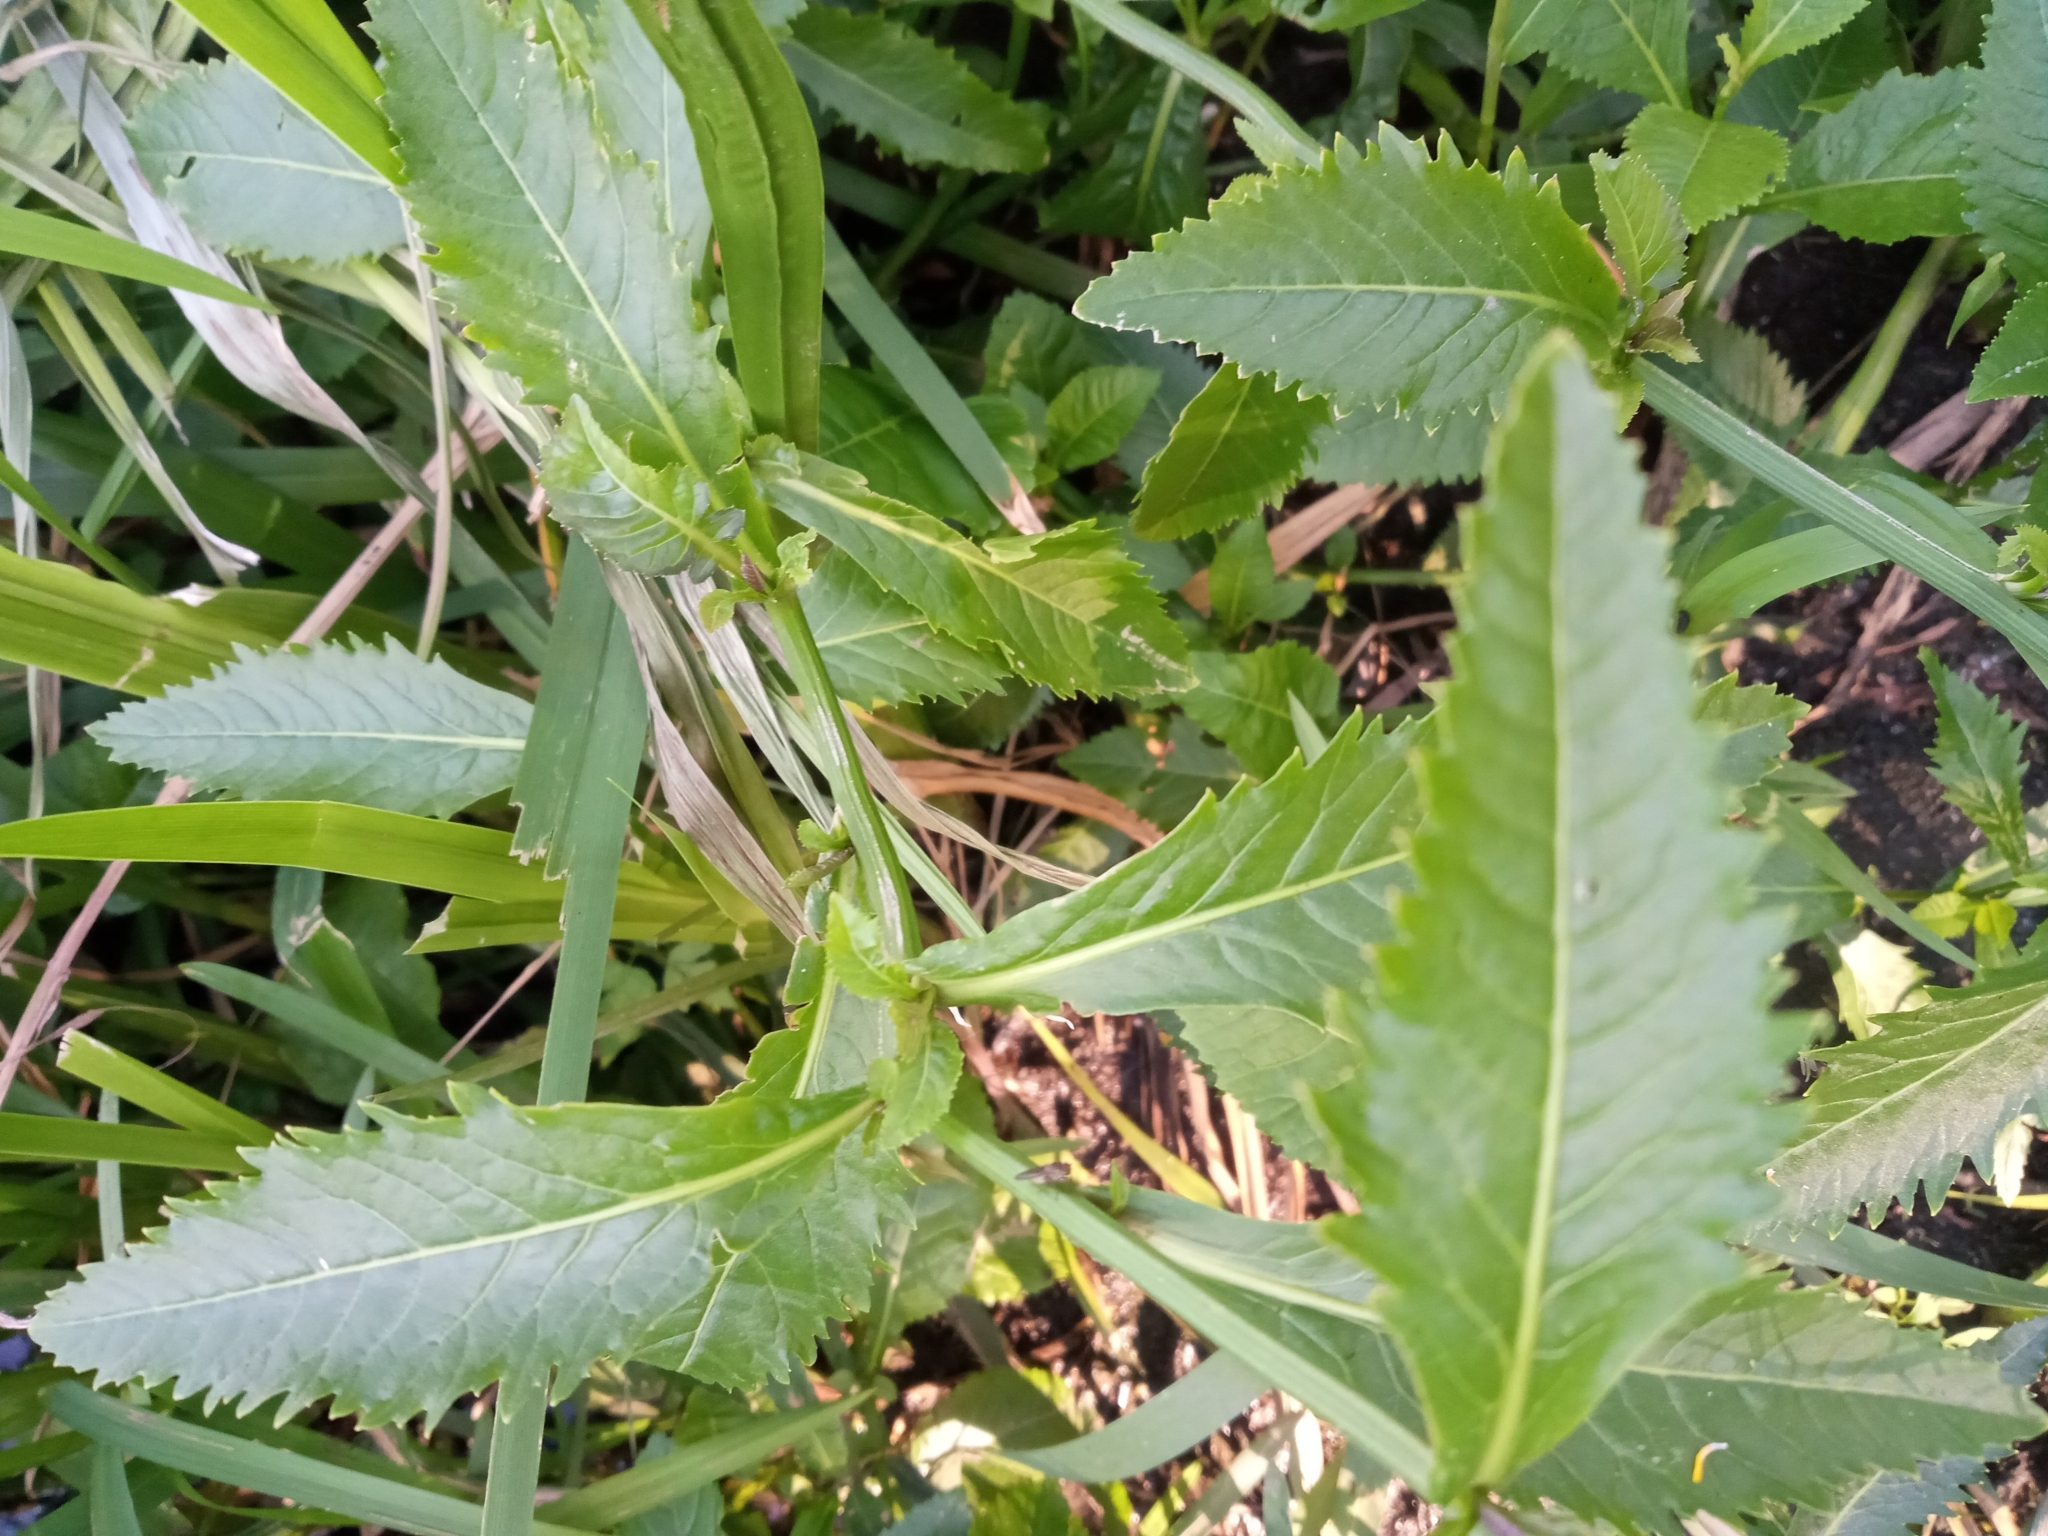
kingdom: Plantae
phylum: Tracheophyta
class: Magnoliopsida
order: Brassicales
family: Brassicaceae
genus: Rorippa
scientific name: Rorippa amphibia
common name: Great yellow-cress
